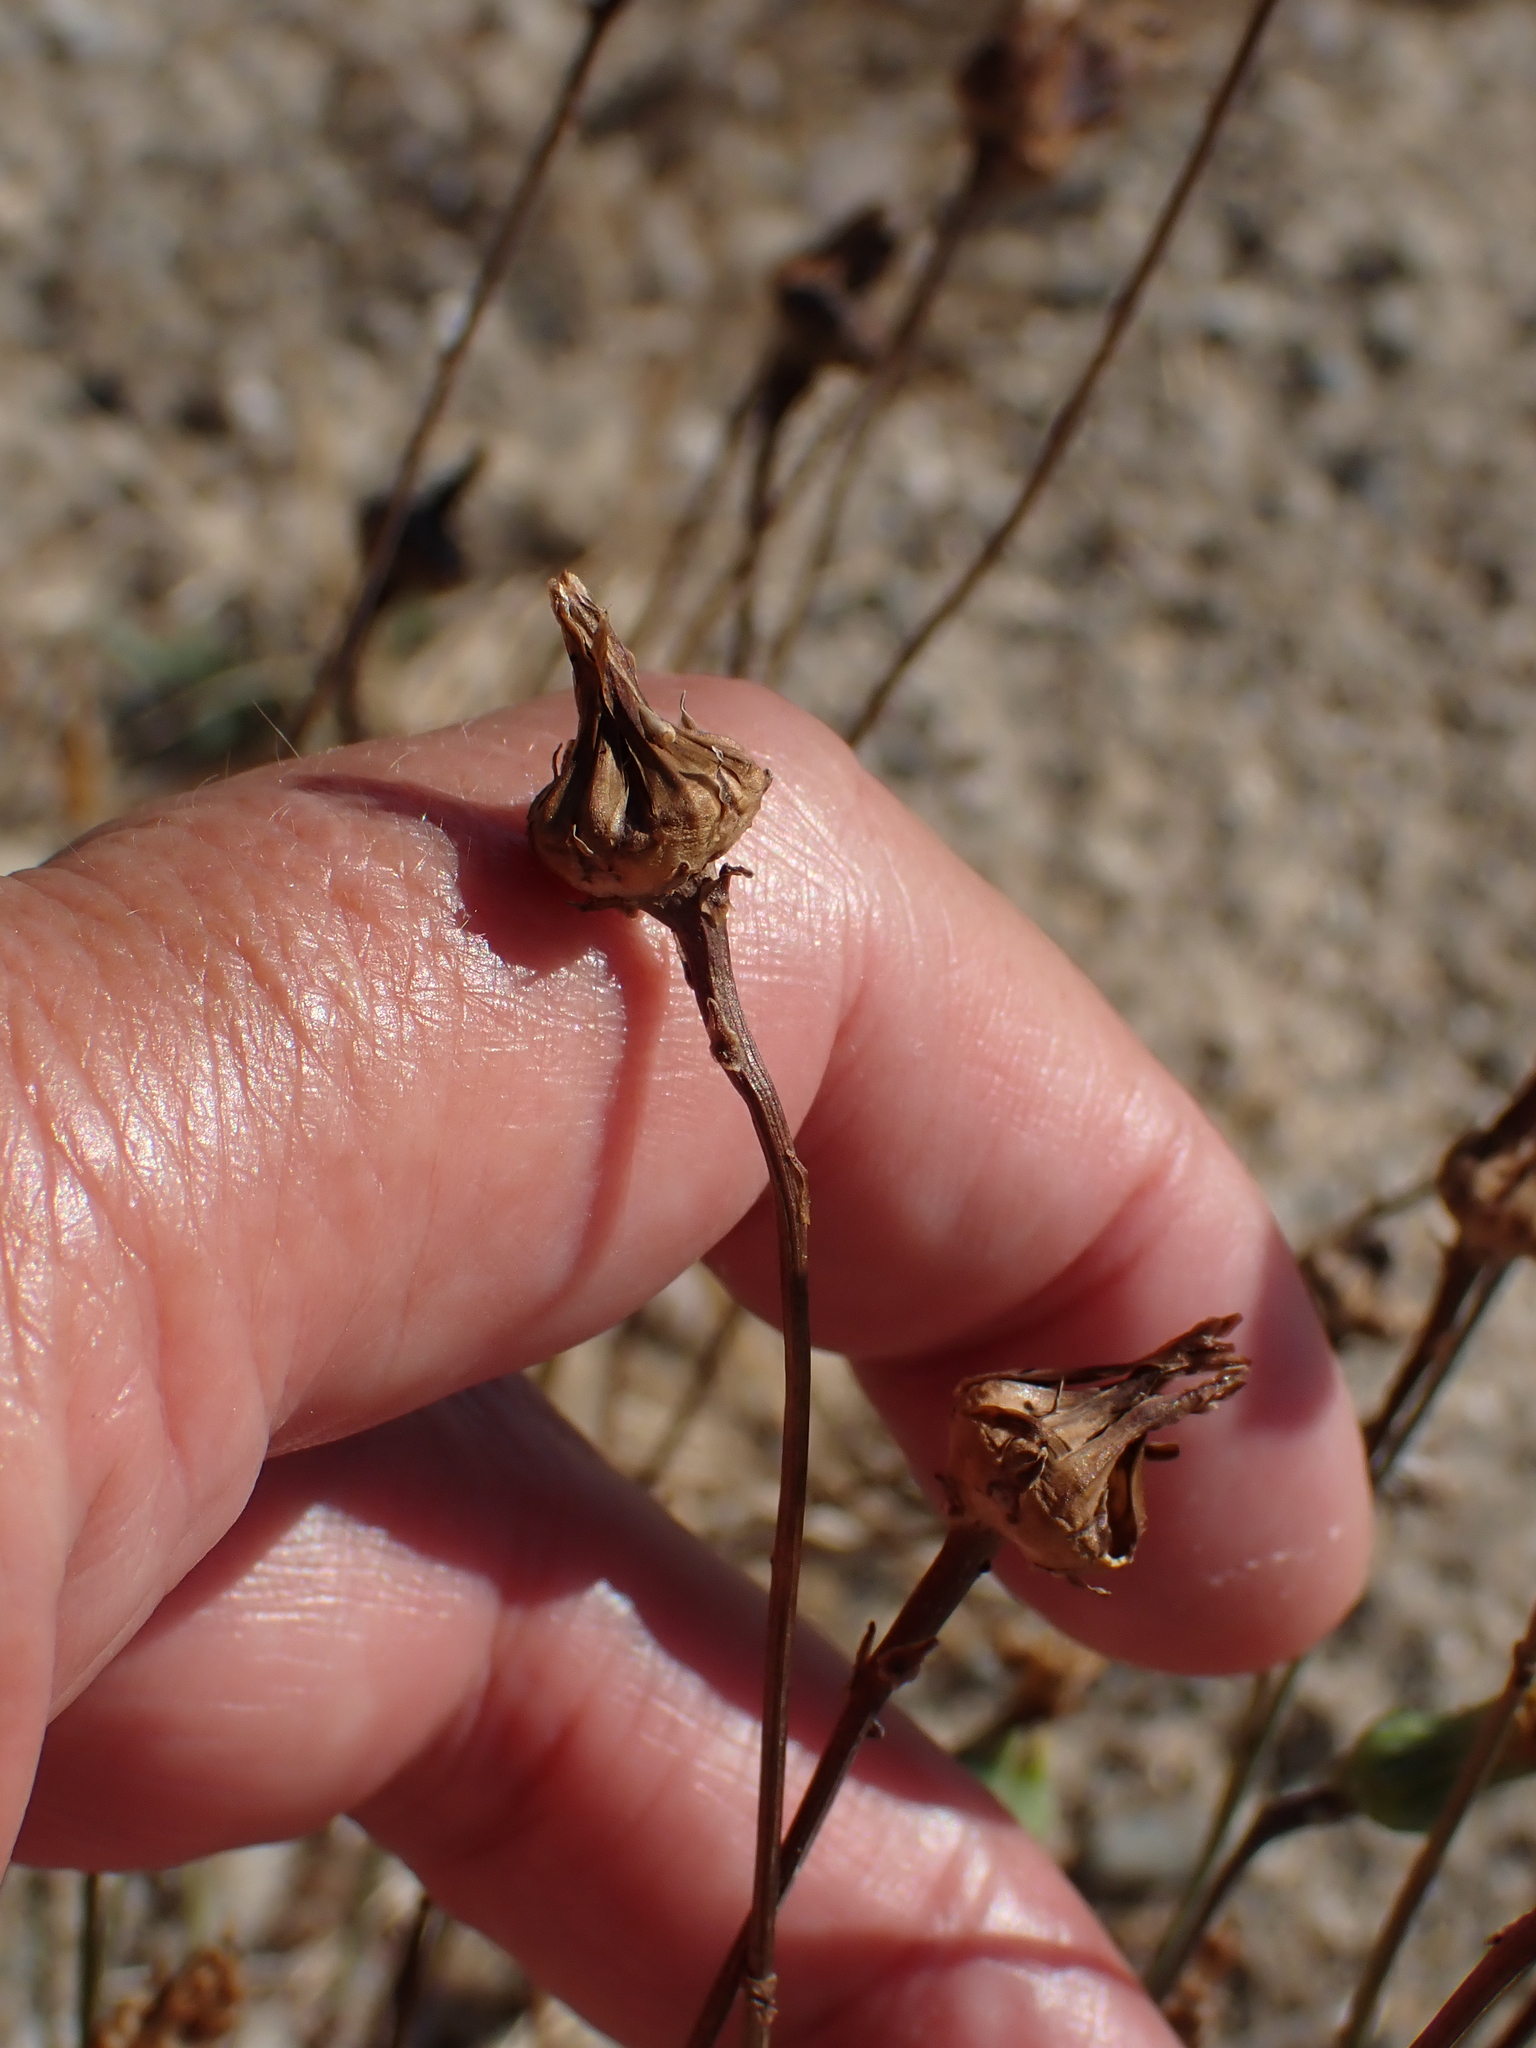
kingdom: Plantae
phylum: Tracheophyta
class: Magnoliopsida
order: Asterales
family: Asteraceae
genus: Reichardia
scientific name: Reichardia picroides
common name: Common brighteyes
